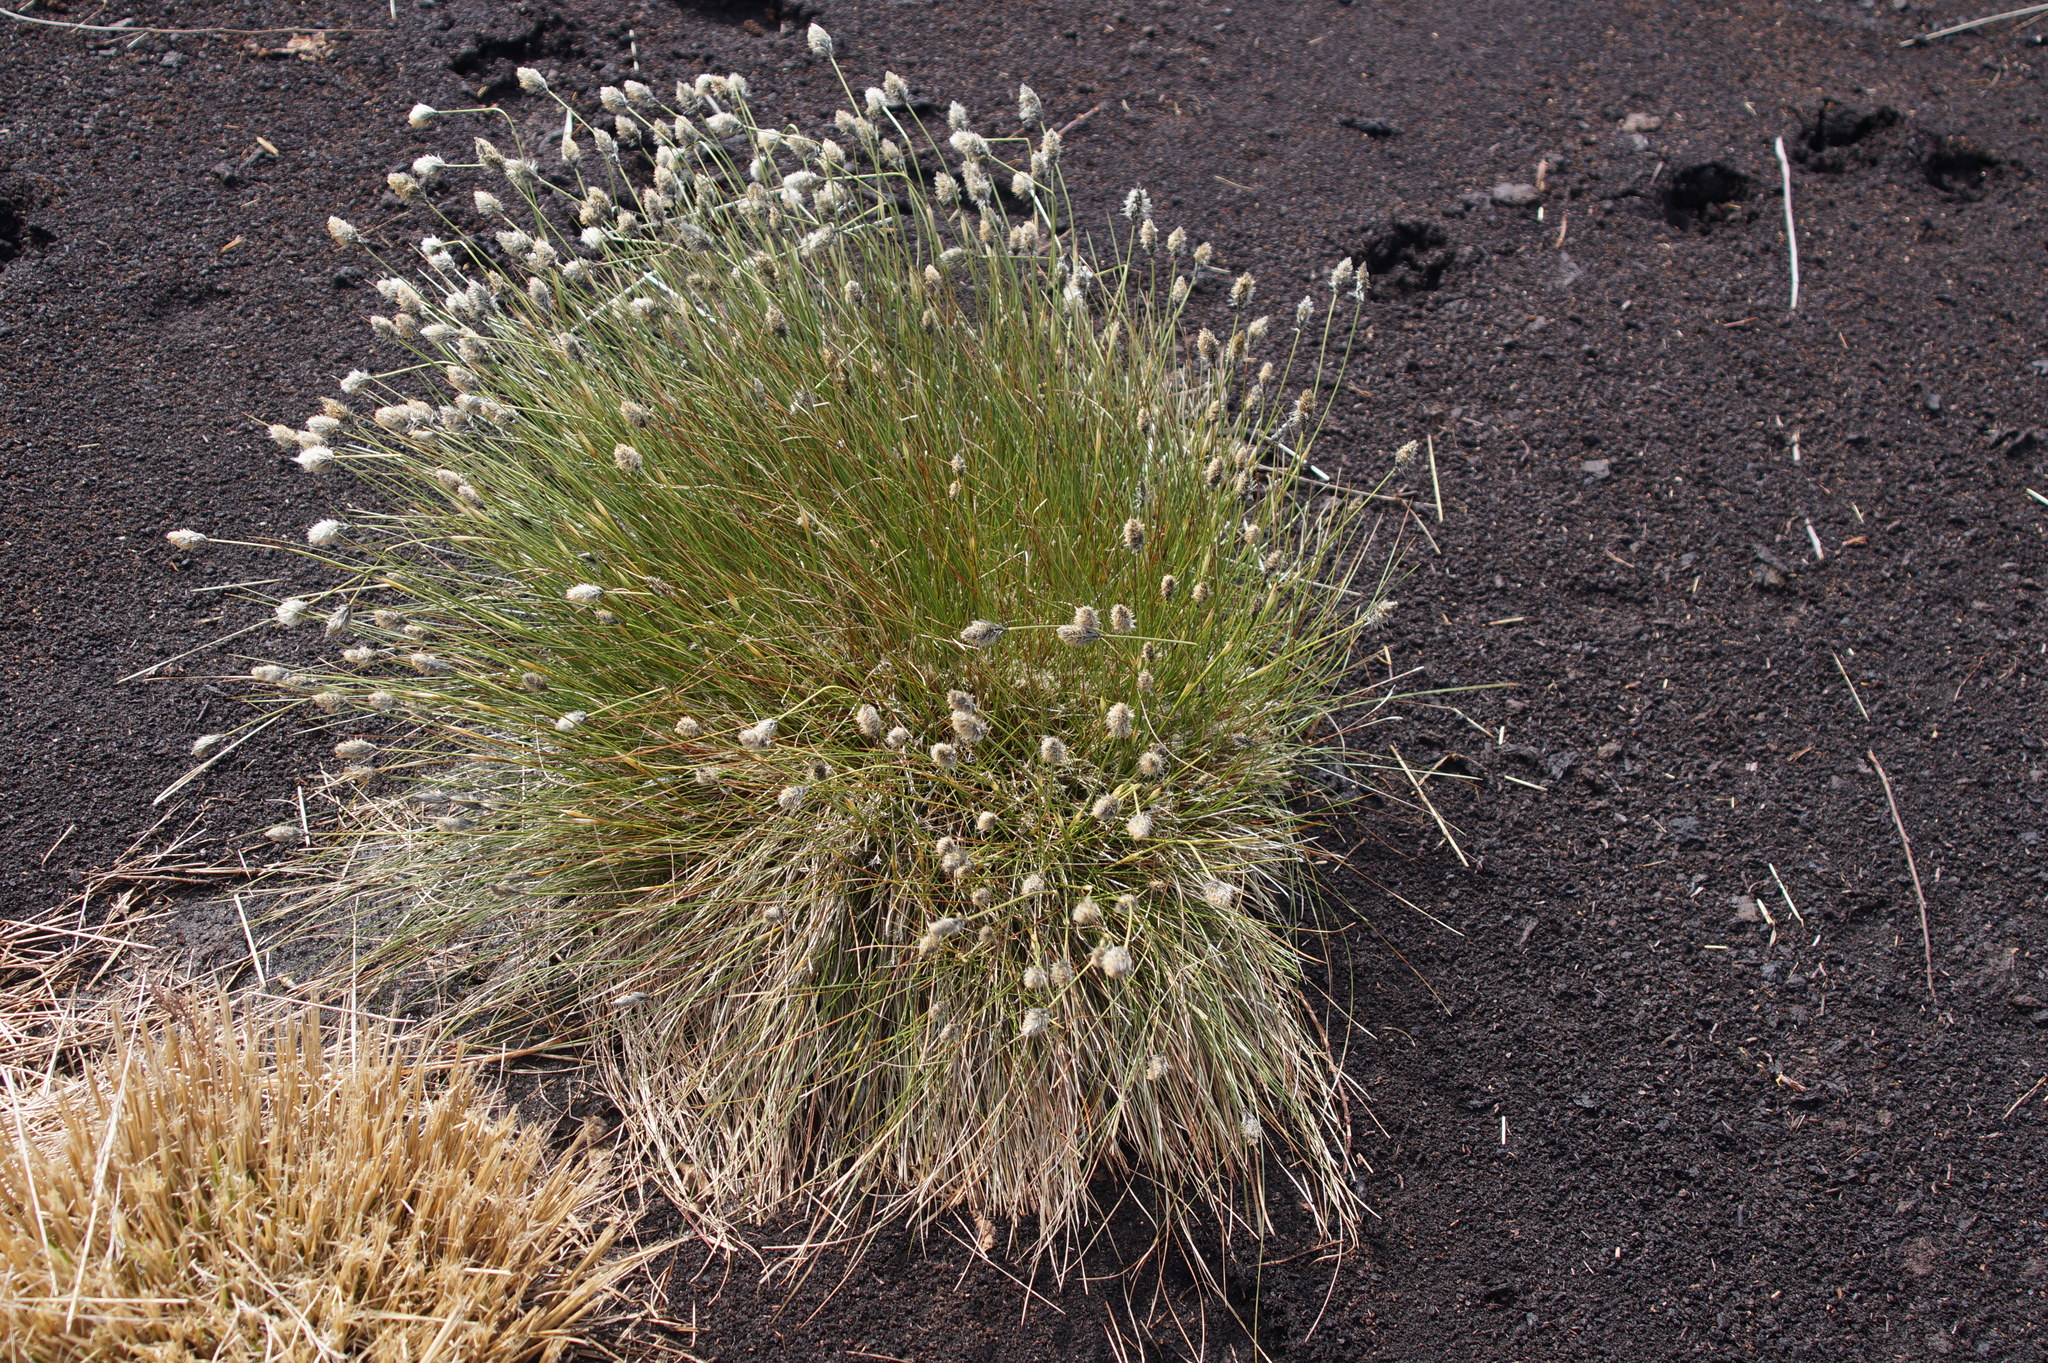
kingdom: Plantae
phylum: Tracheophyta
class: Liliopsida
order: Poales
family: Cyperaceae
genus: Eriophorum
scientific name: Eriophorum vaginatum
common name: Hare's-tail cottongrass
